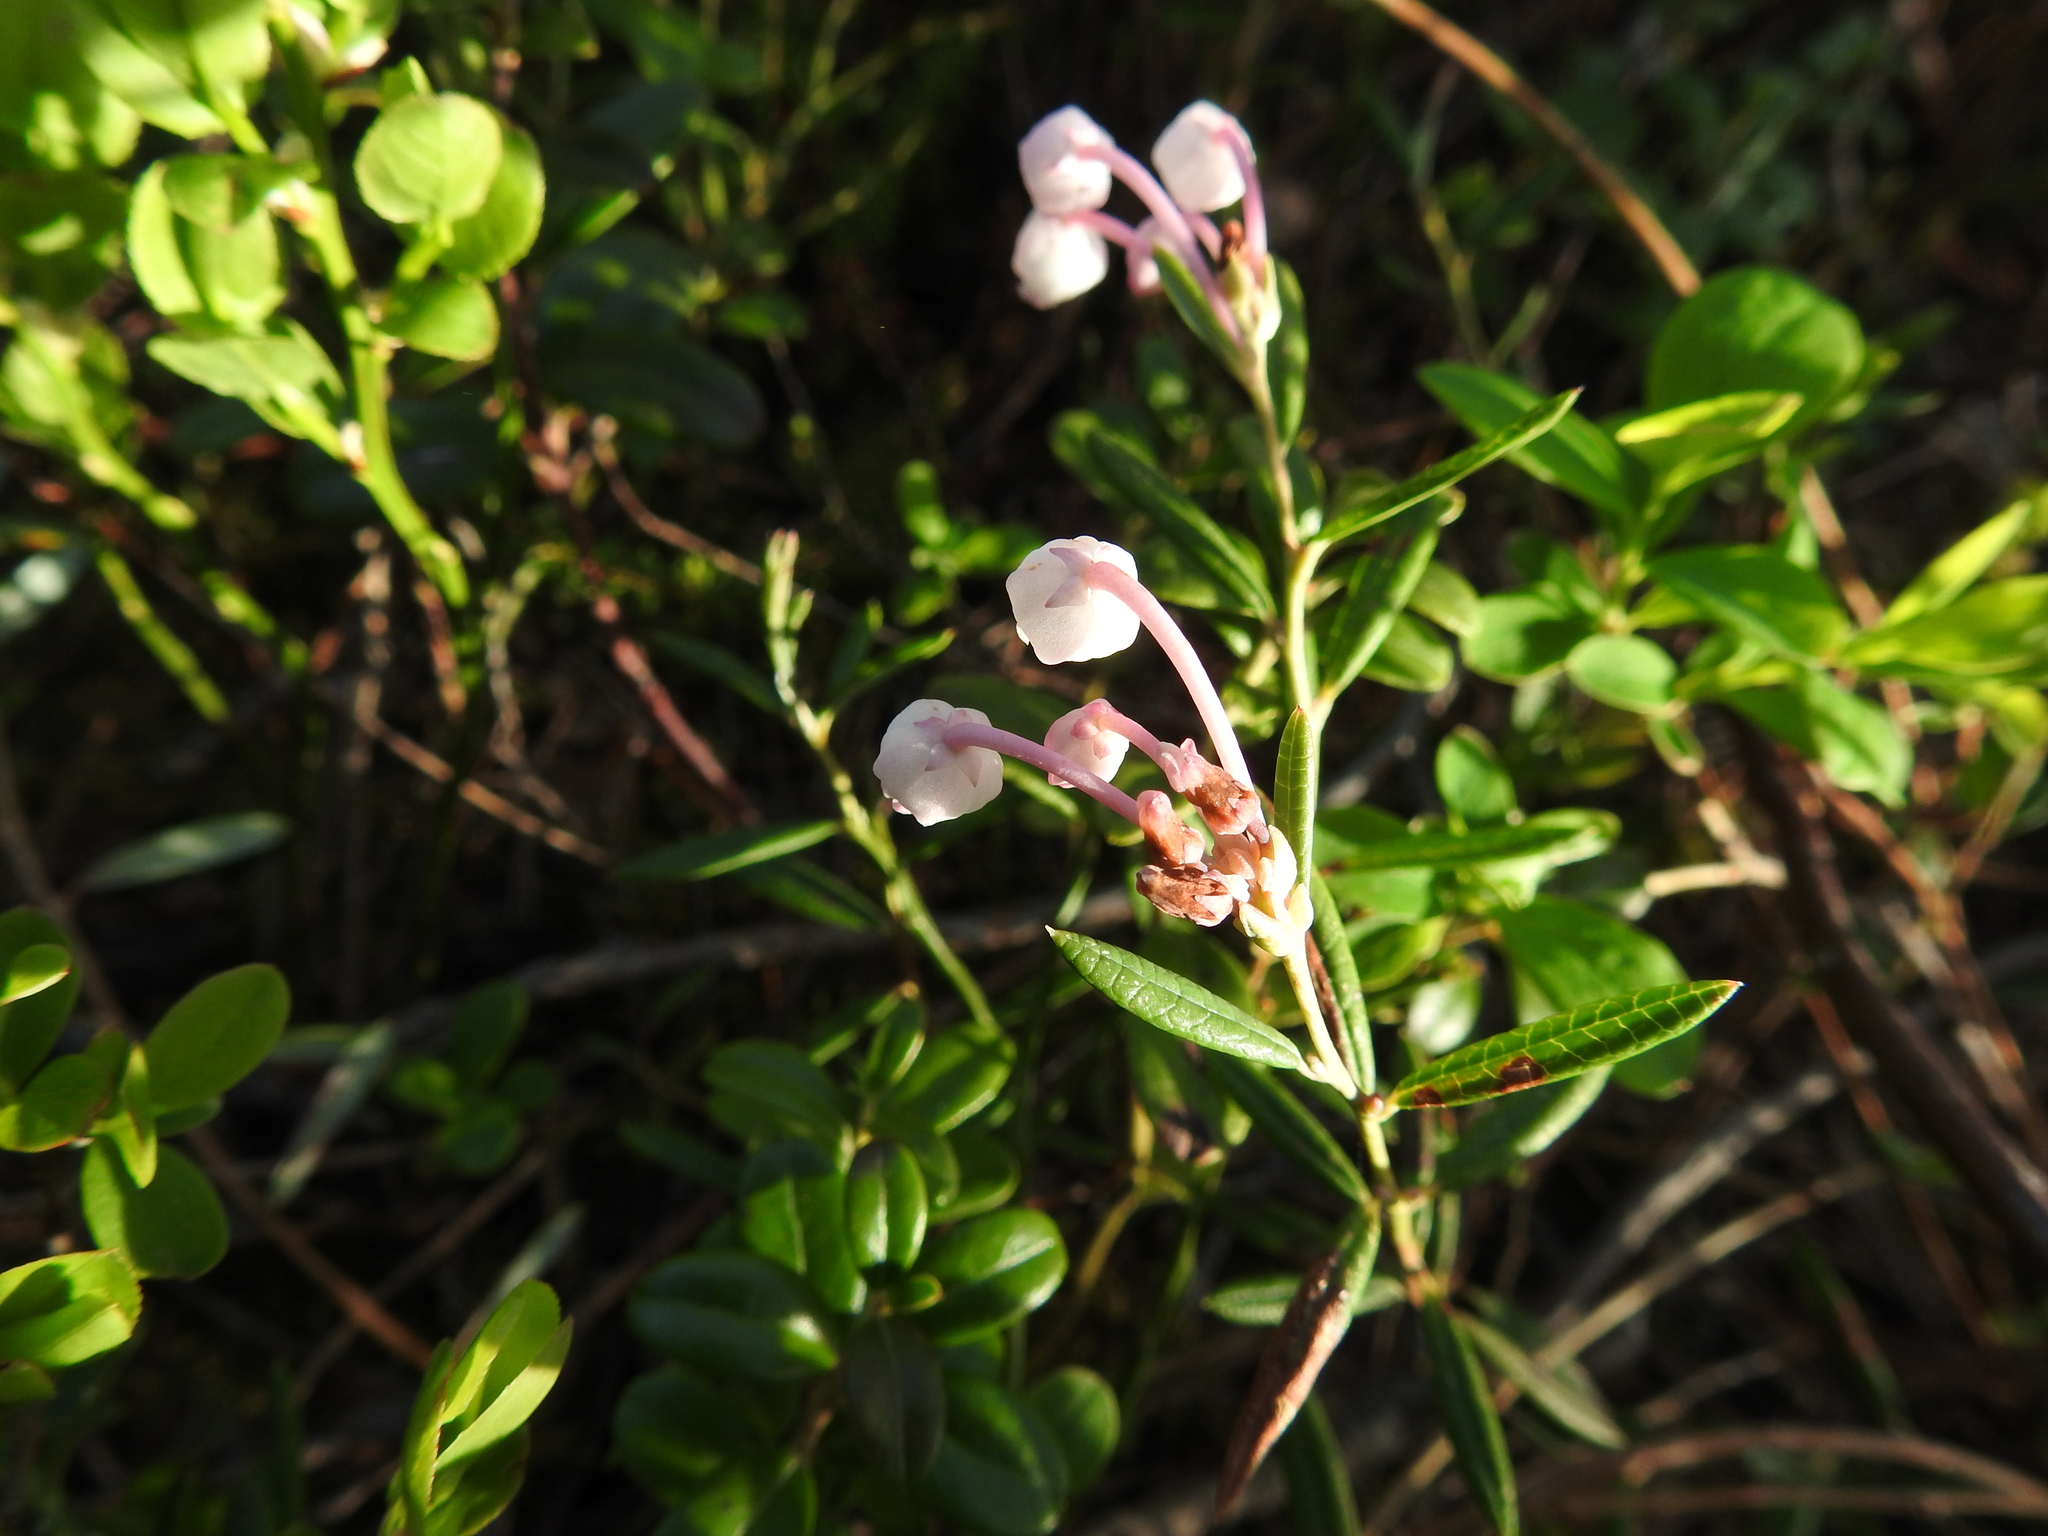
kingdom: Plantae
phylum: Tracheophyta
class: Magnoliopsida
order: Ericales
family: Ericaceae
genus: Andromeda
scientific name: Andromeda polifolia
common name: Bog-rosemary
